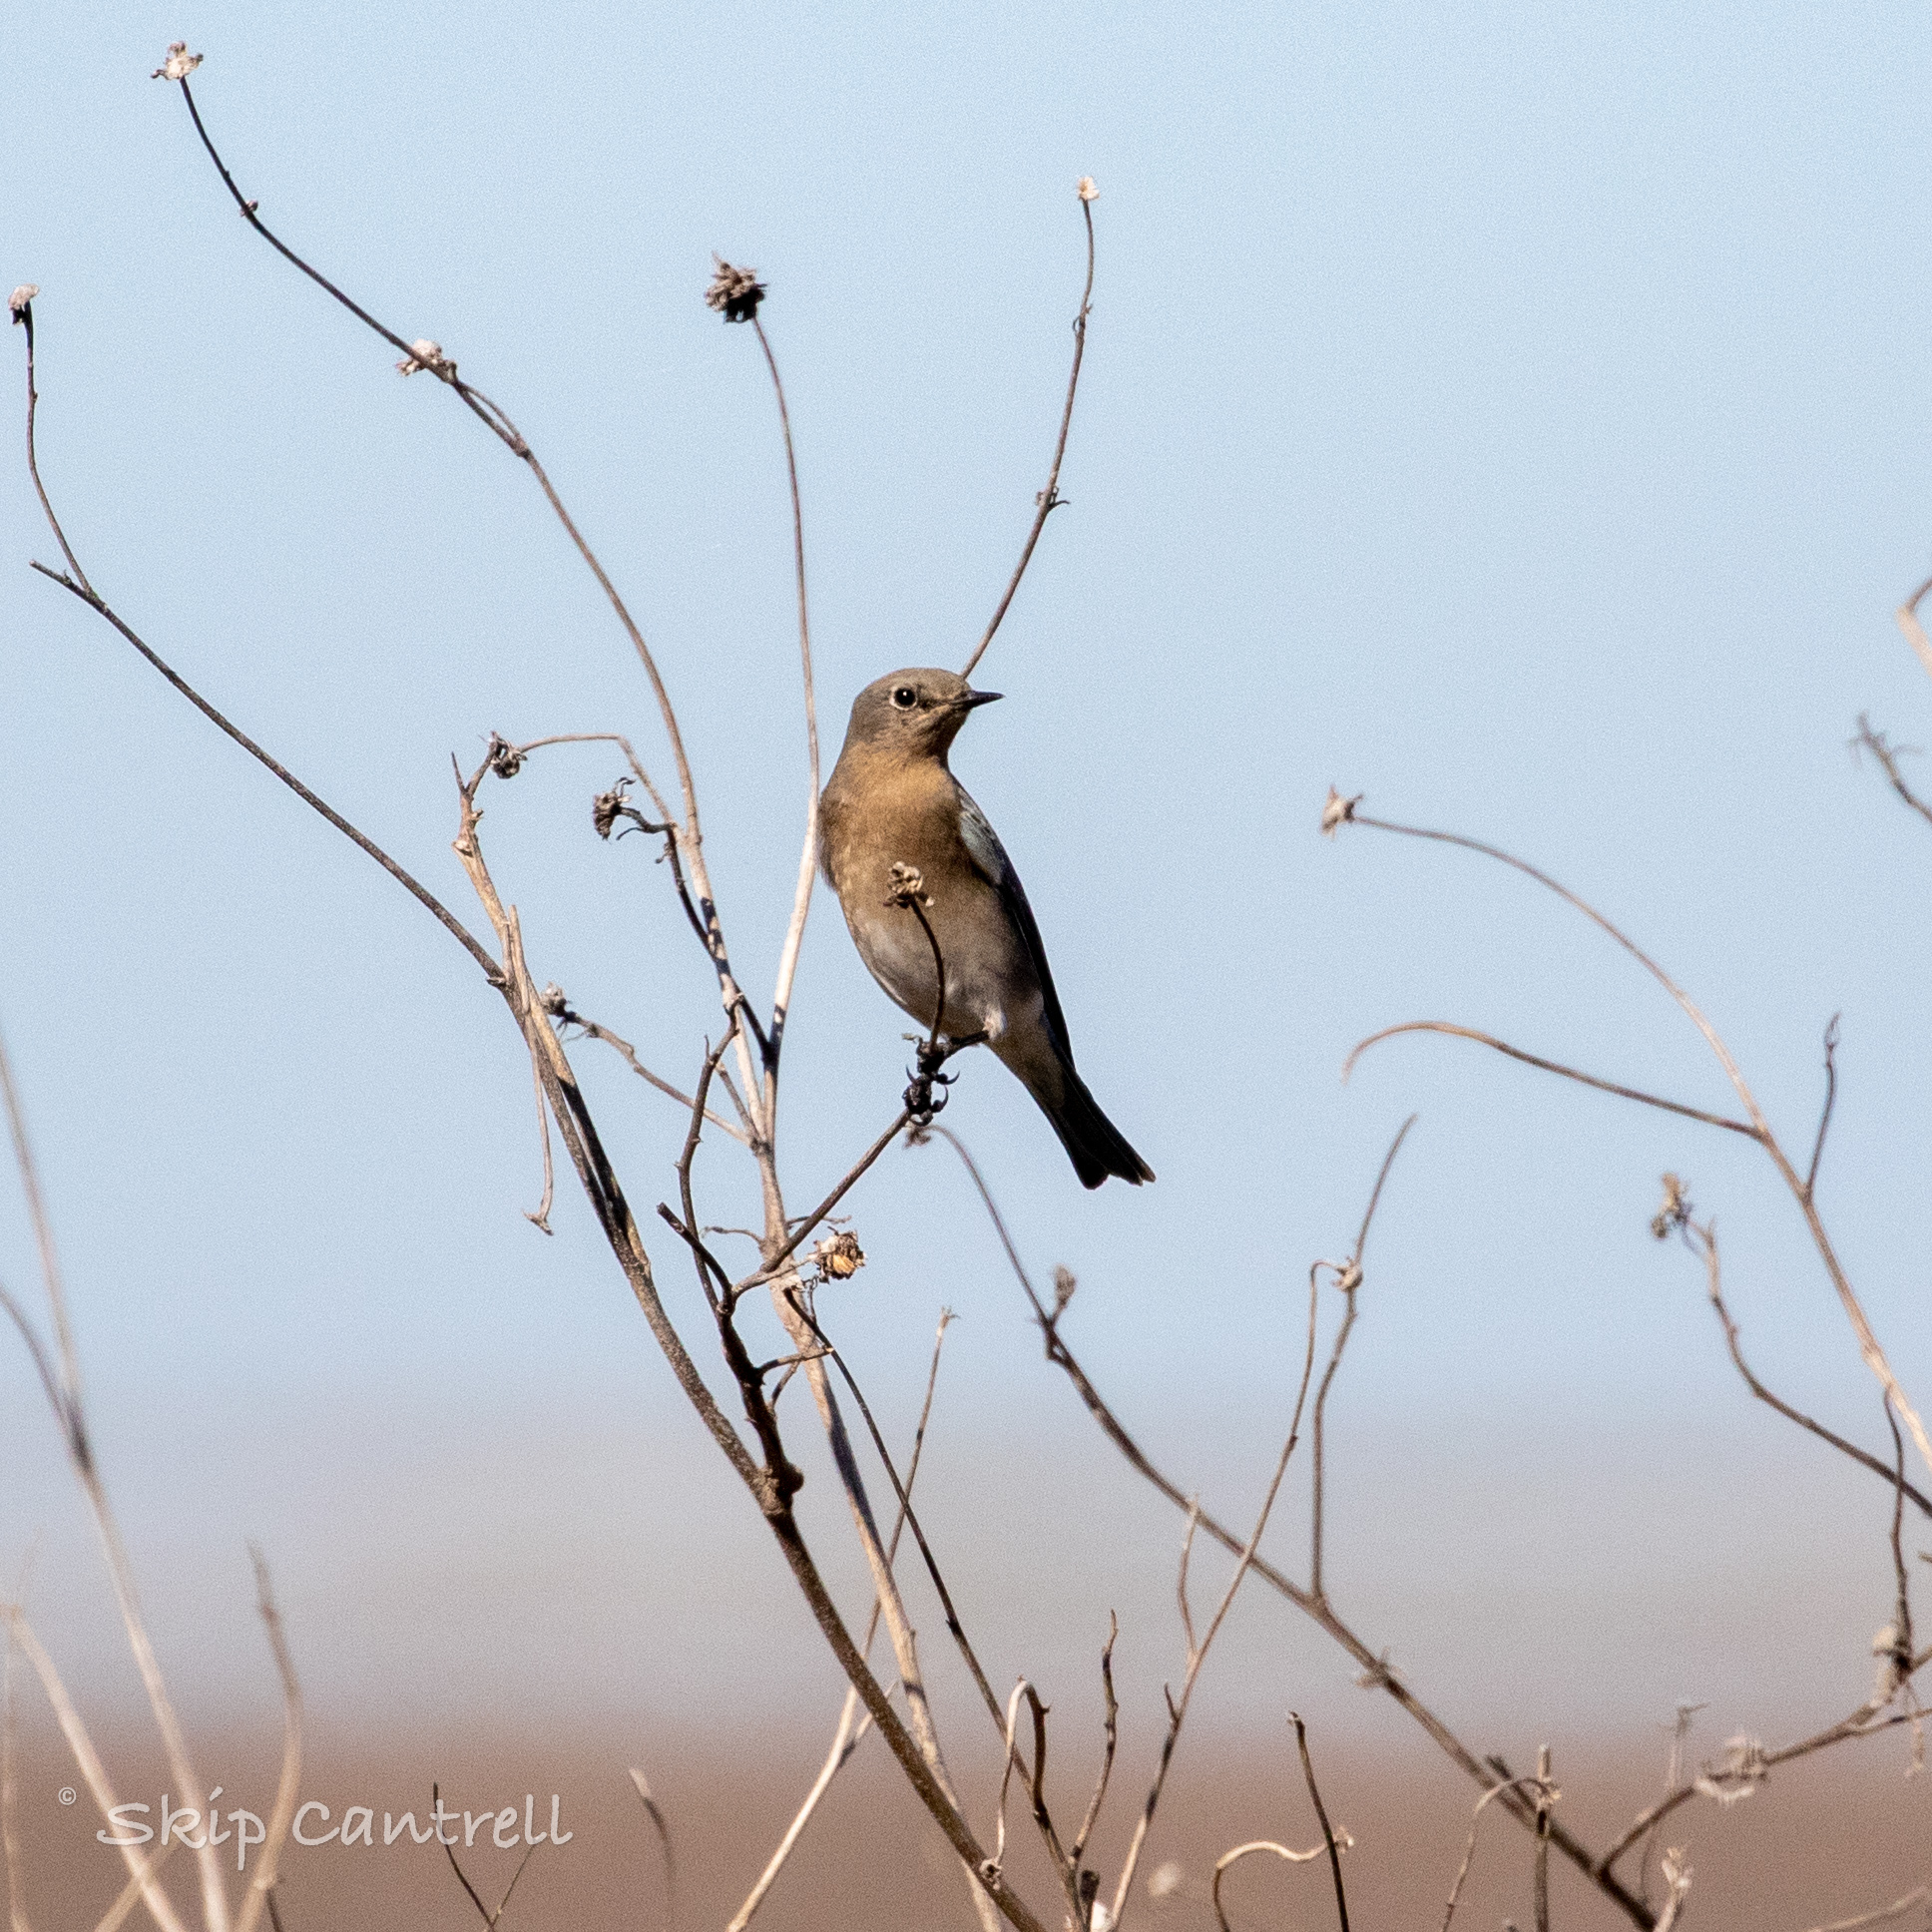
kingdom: Animalia
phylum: Chordata
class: Aves
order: Passeriformes
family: Turdidae
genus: Sialia
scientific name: Sialia sialis
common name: Eastern bluebird
